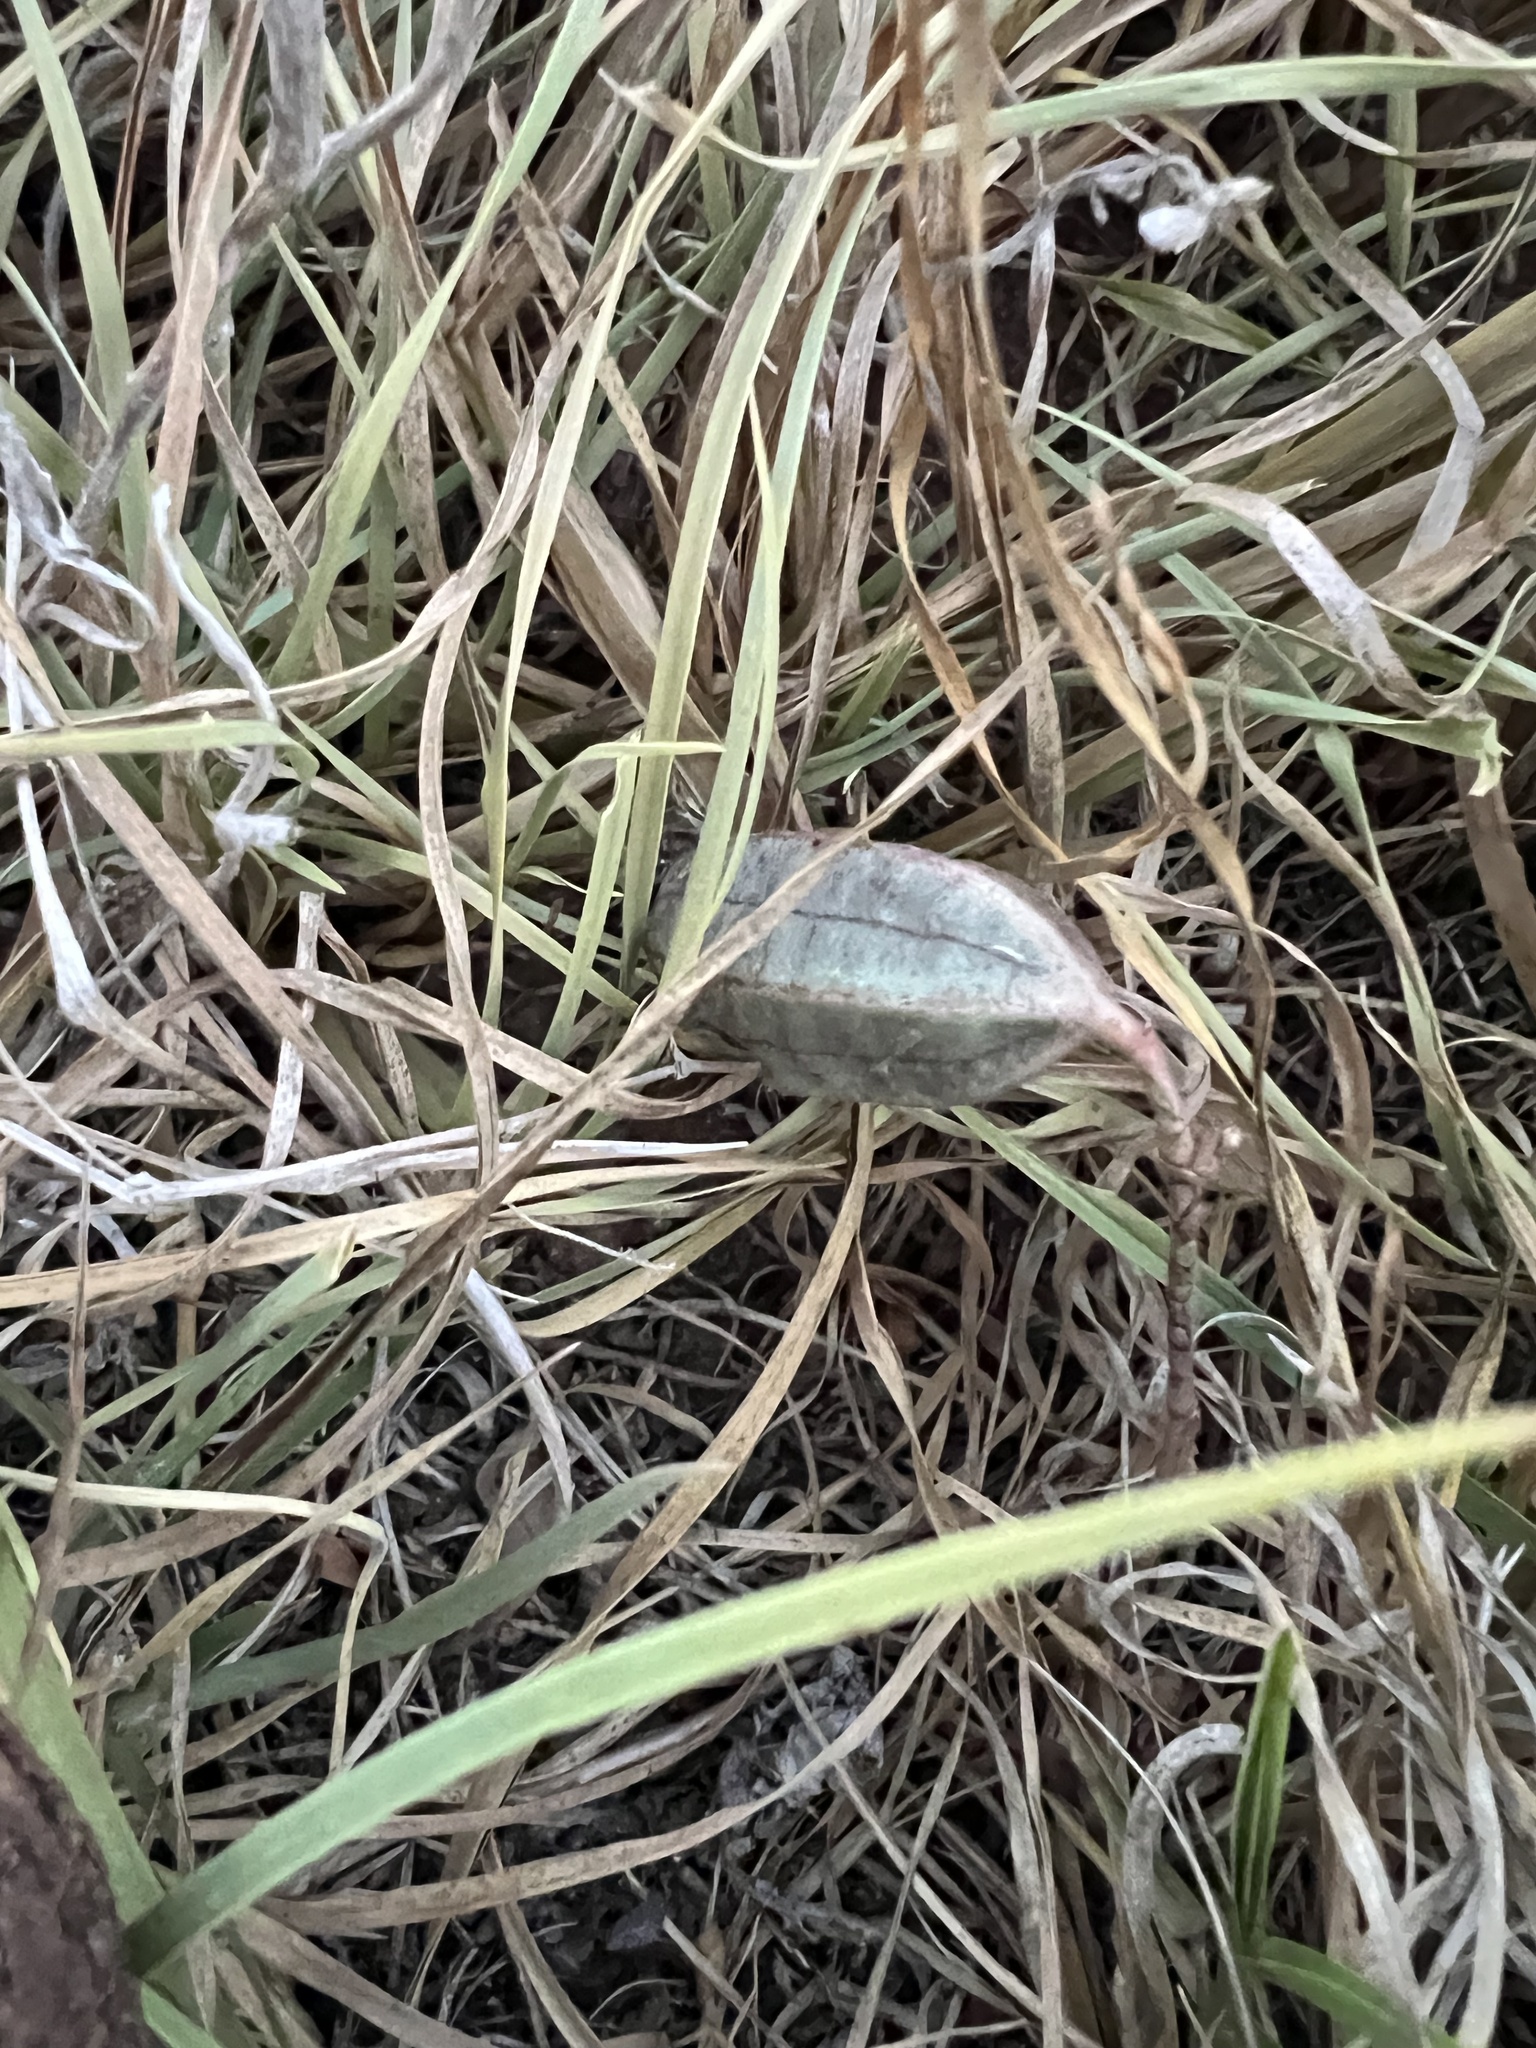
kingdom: Plantae
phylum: Tracheophyta
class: Magnoliopsida
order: Piperales
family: Aristolochiaceae
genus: Aristolochia
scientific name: Aristolochia erecta
